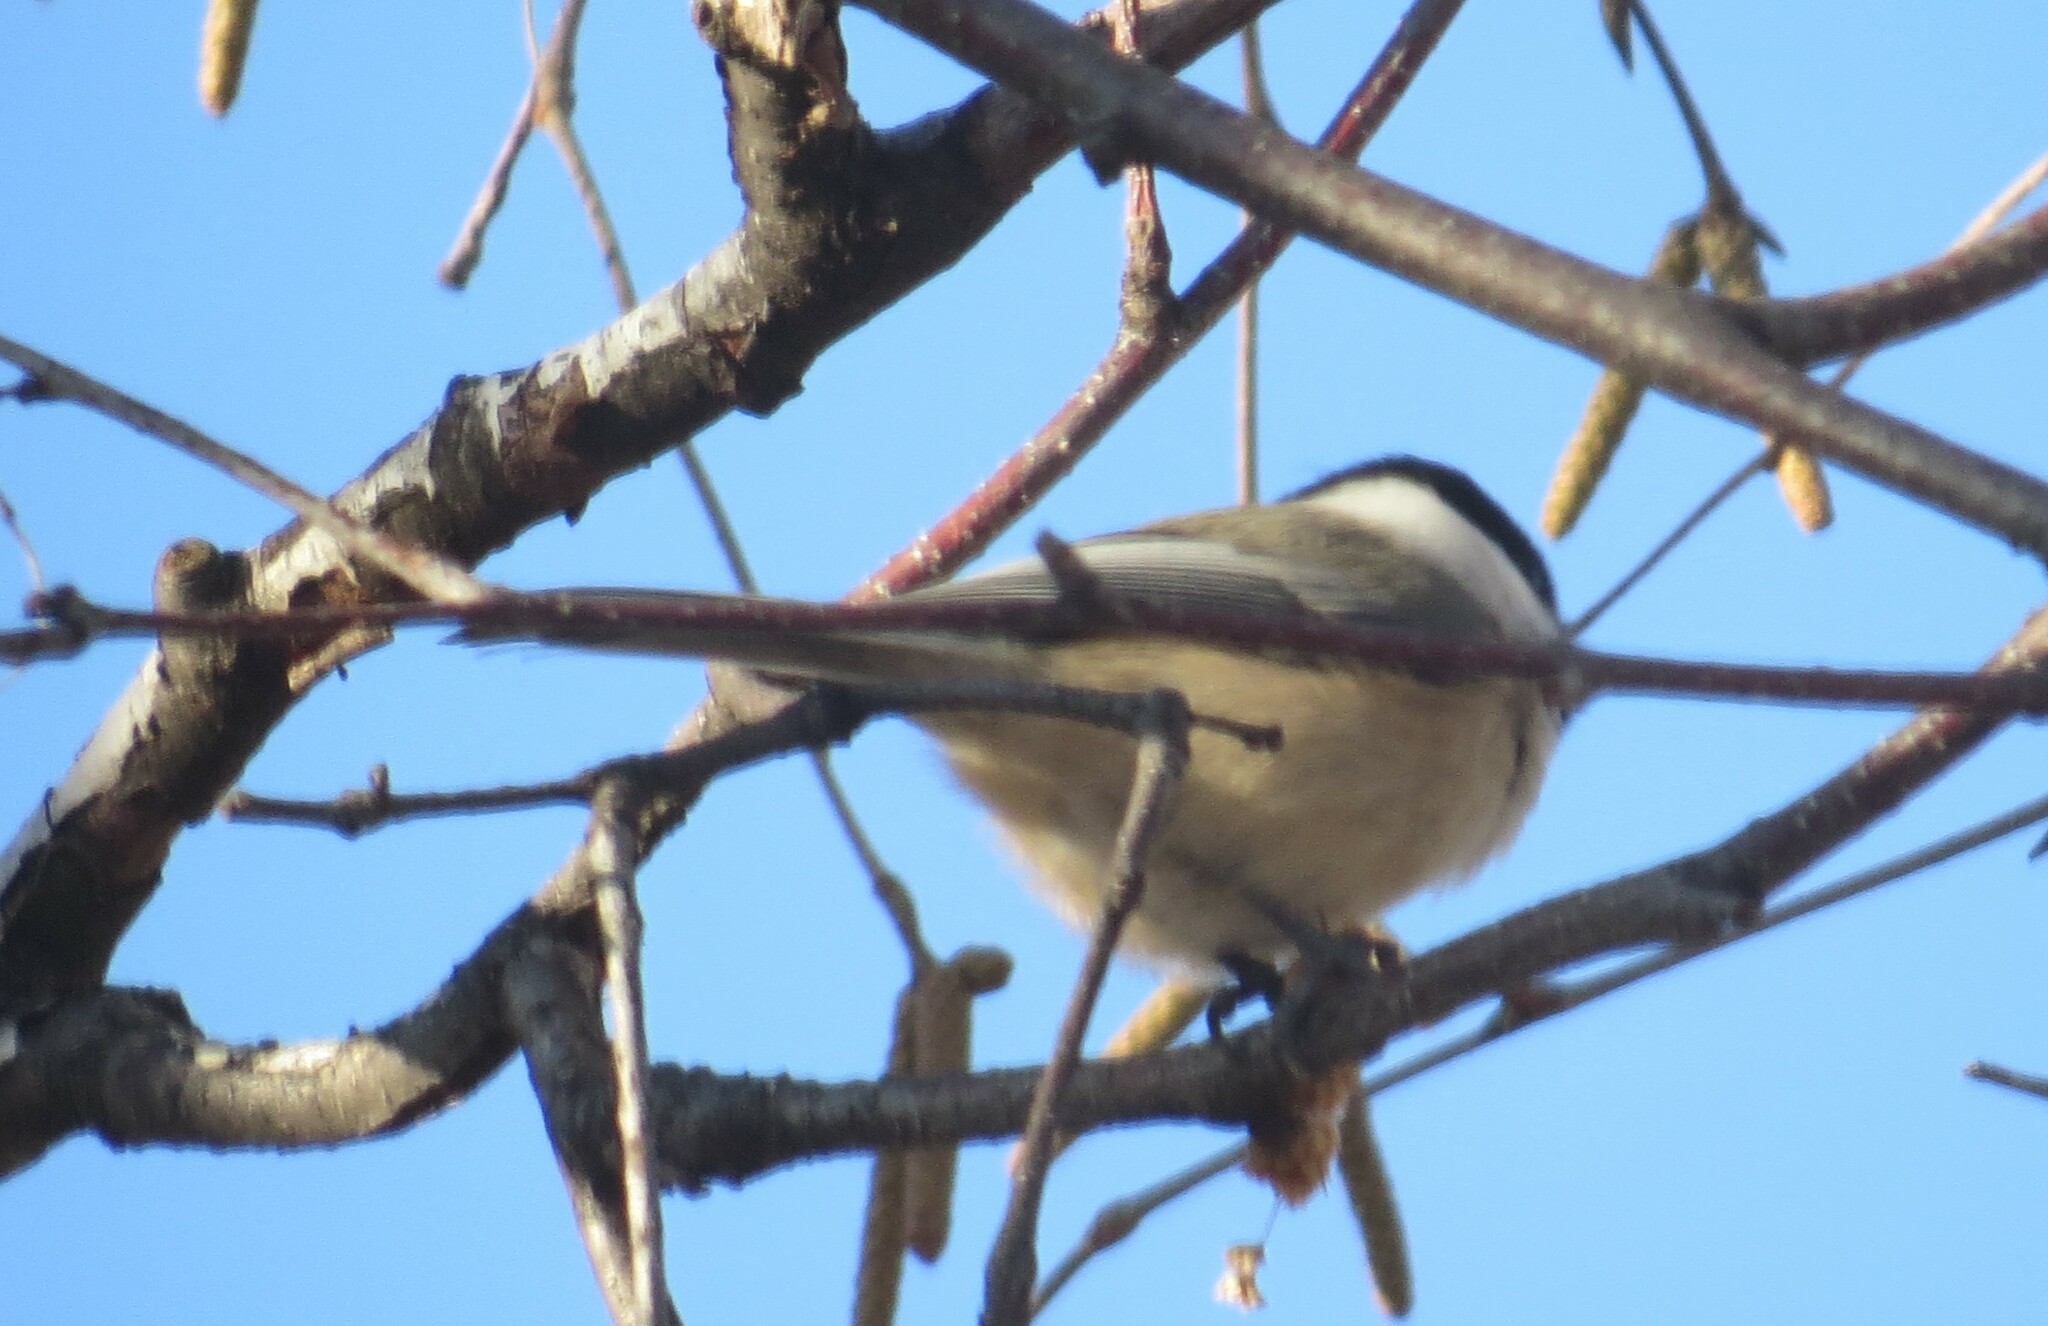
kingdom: Animalia
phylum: Chordata
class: Aves
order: Passeriformes
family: Paridae
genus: Poecile
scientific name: Poecile atricapillus
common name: Black-capped chickadee
